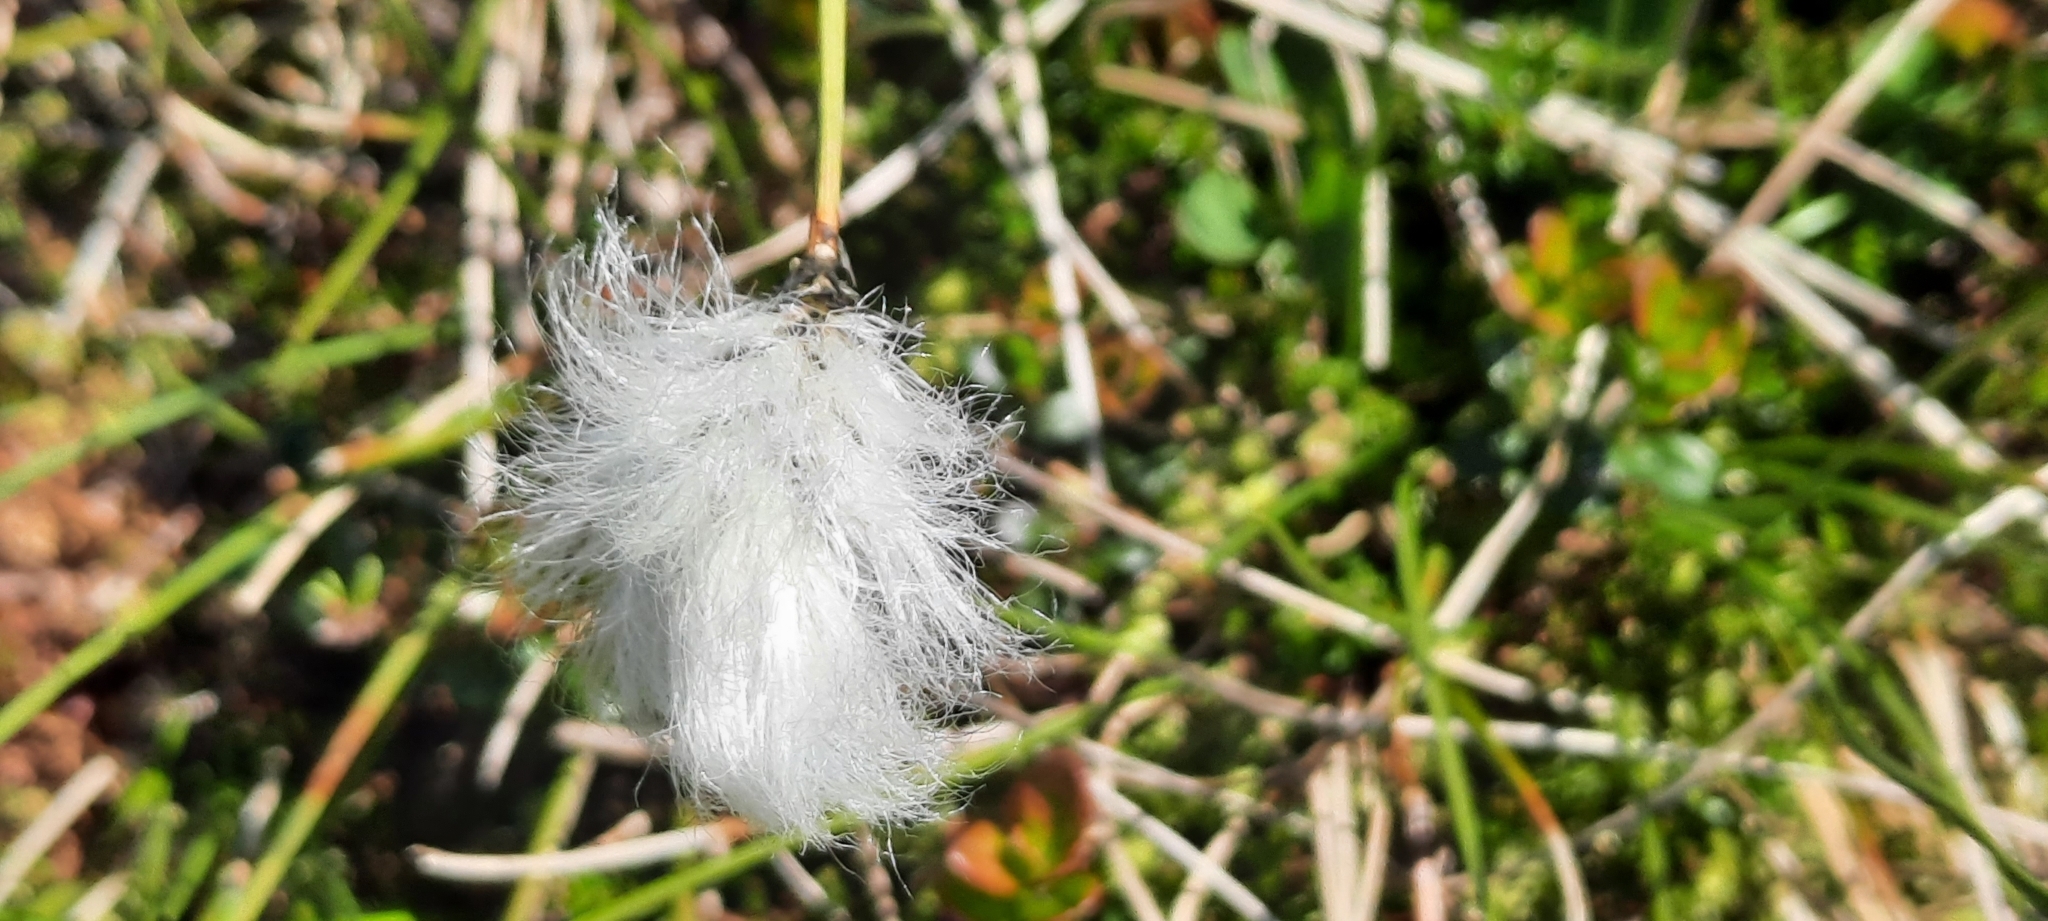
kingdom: Plantae
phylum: Tracheophyta
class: Liliopsida
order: Poales
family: Cyperaceae
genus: Eriophorum
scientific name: Eriophorum vaginatum
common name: Hare's-tail cottongrass
